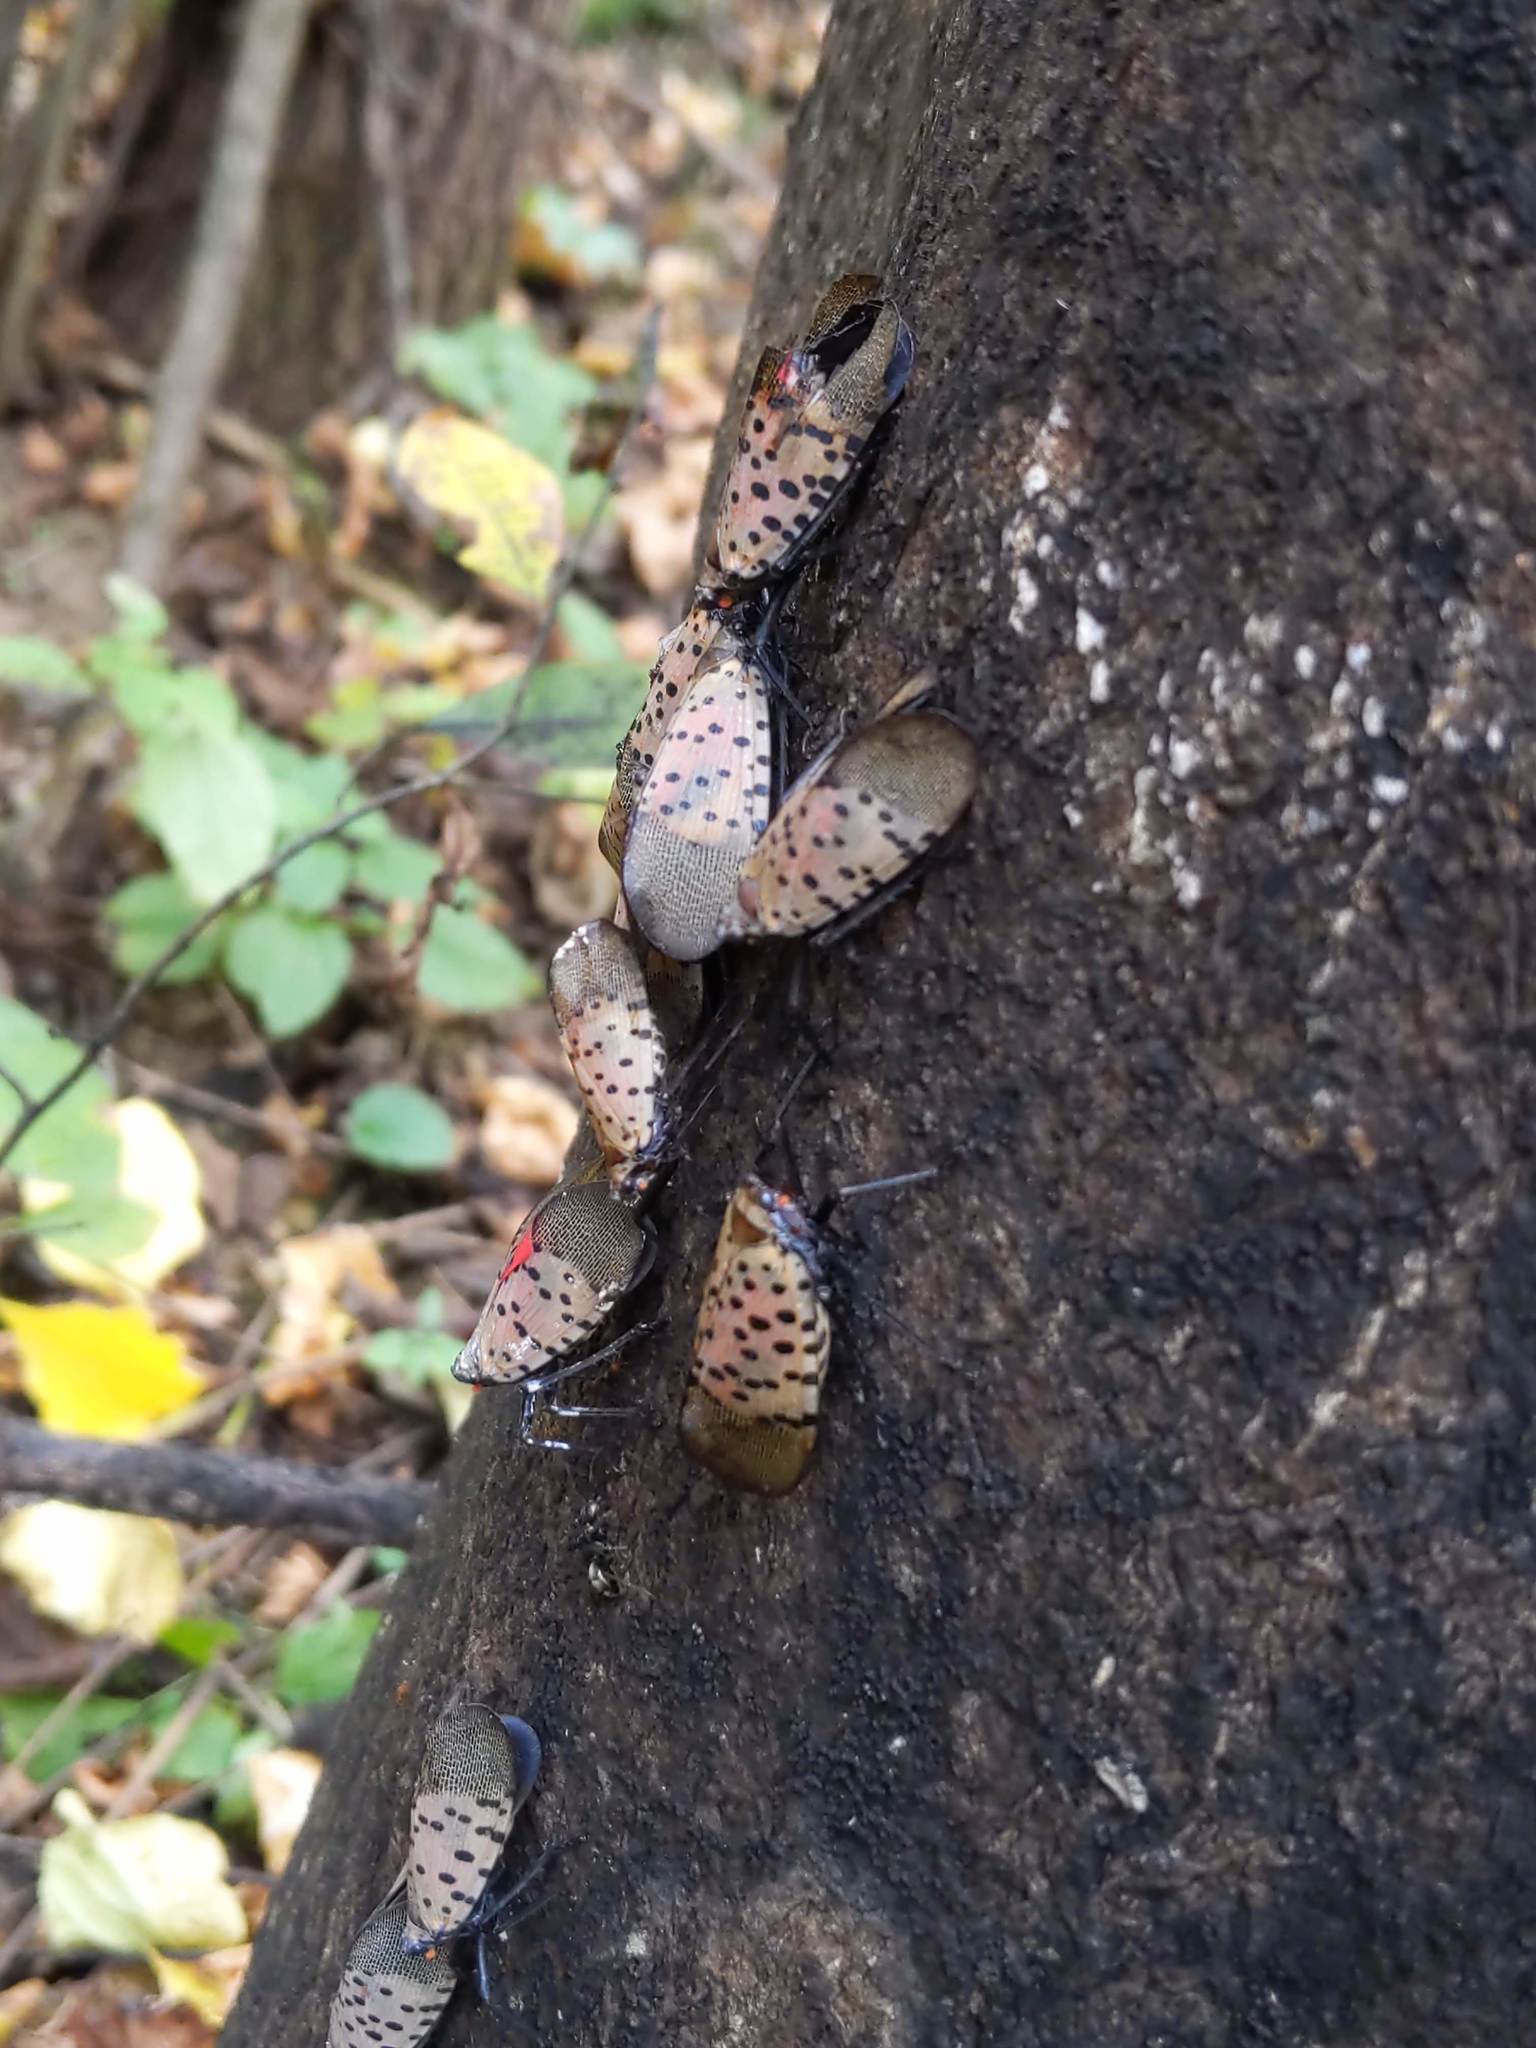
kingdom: Animalia
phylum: Arthropoda
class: Insecta
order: Hemiptera
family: Fulgoridae
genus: Lycorma
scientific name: Lycorma delicatula
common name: Spotted lanternfly
